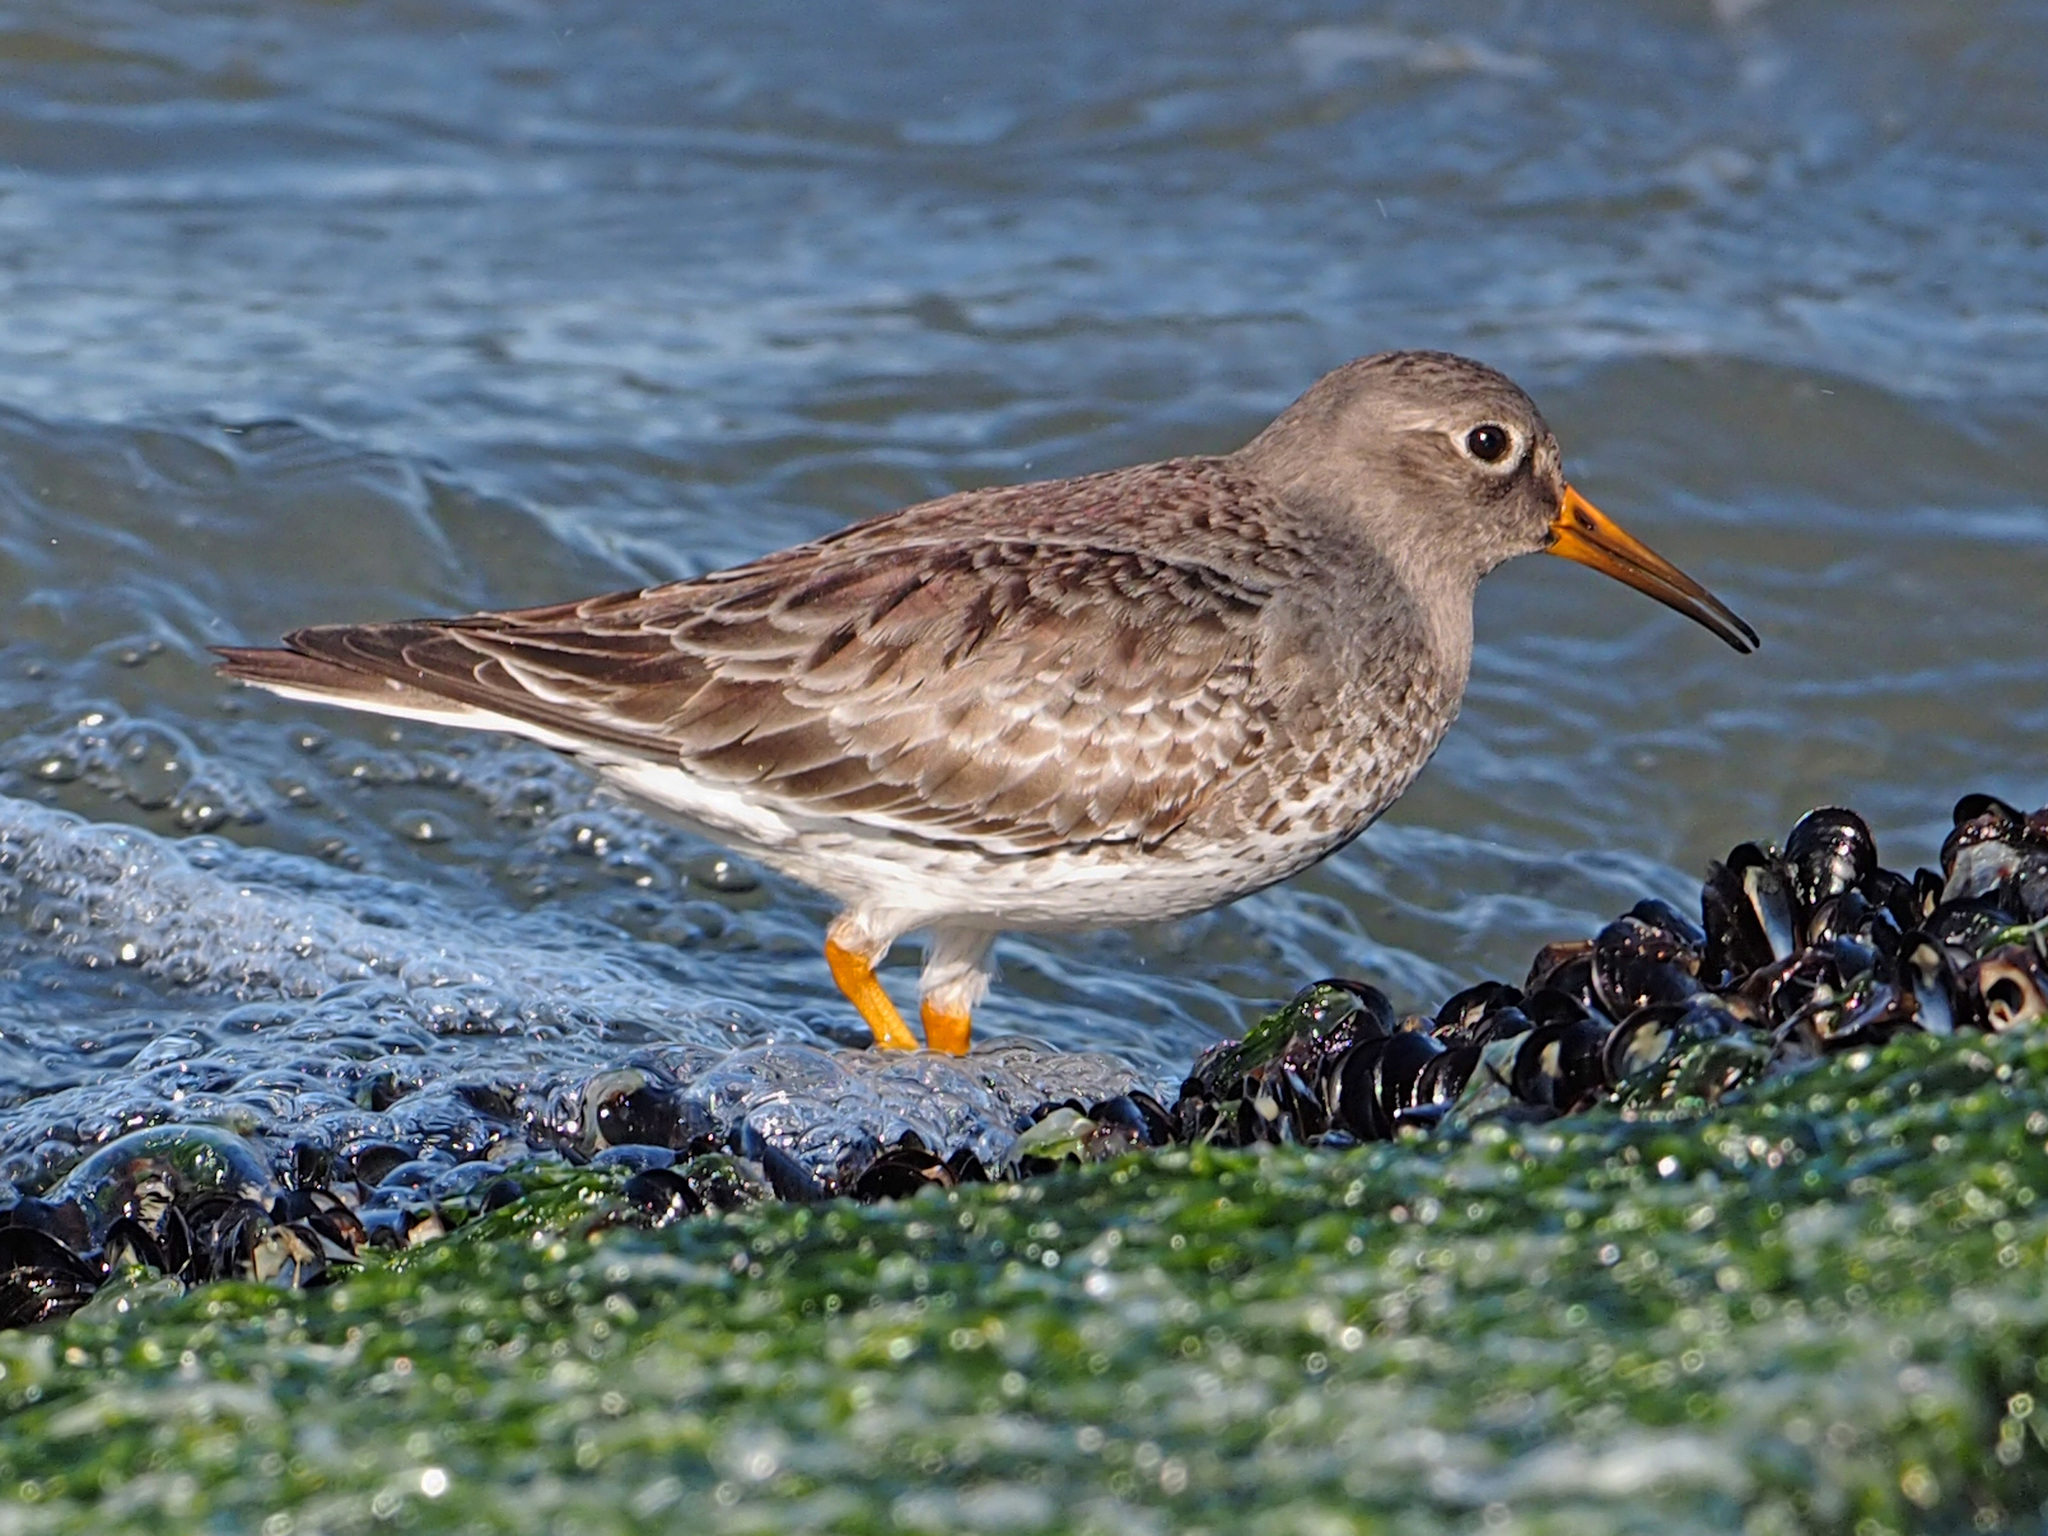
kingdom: Animalia
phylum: Chordata
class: Aves
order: Charadriiformes
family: Scolopacidae
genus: Calidris
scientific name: Calidris maritima
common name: Purple sandpiper
